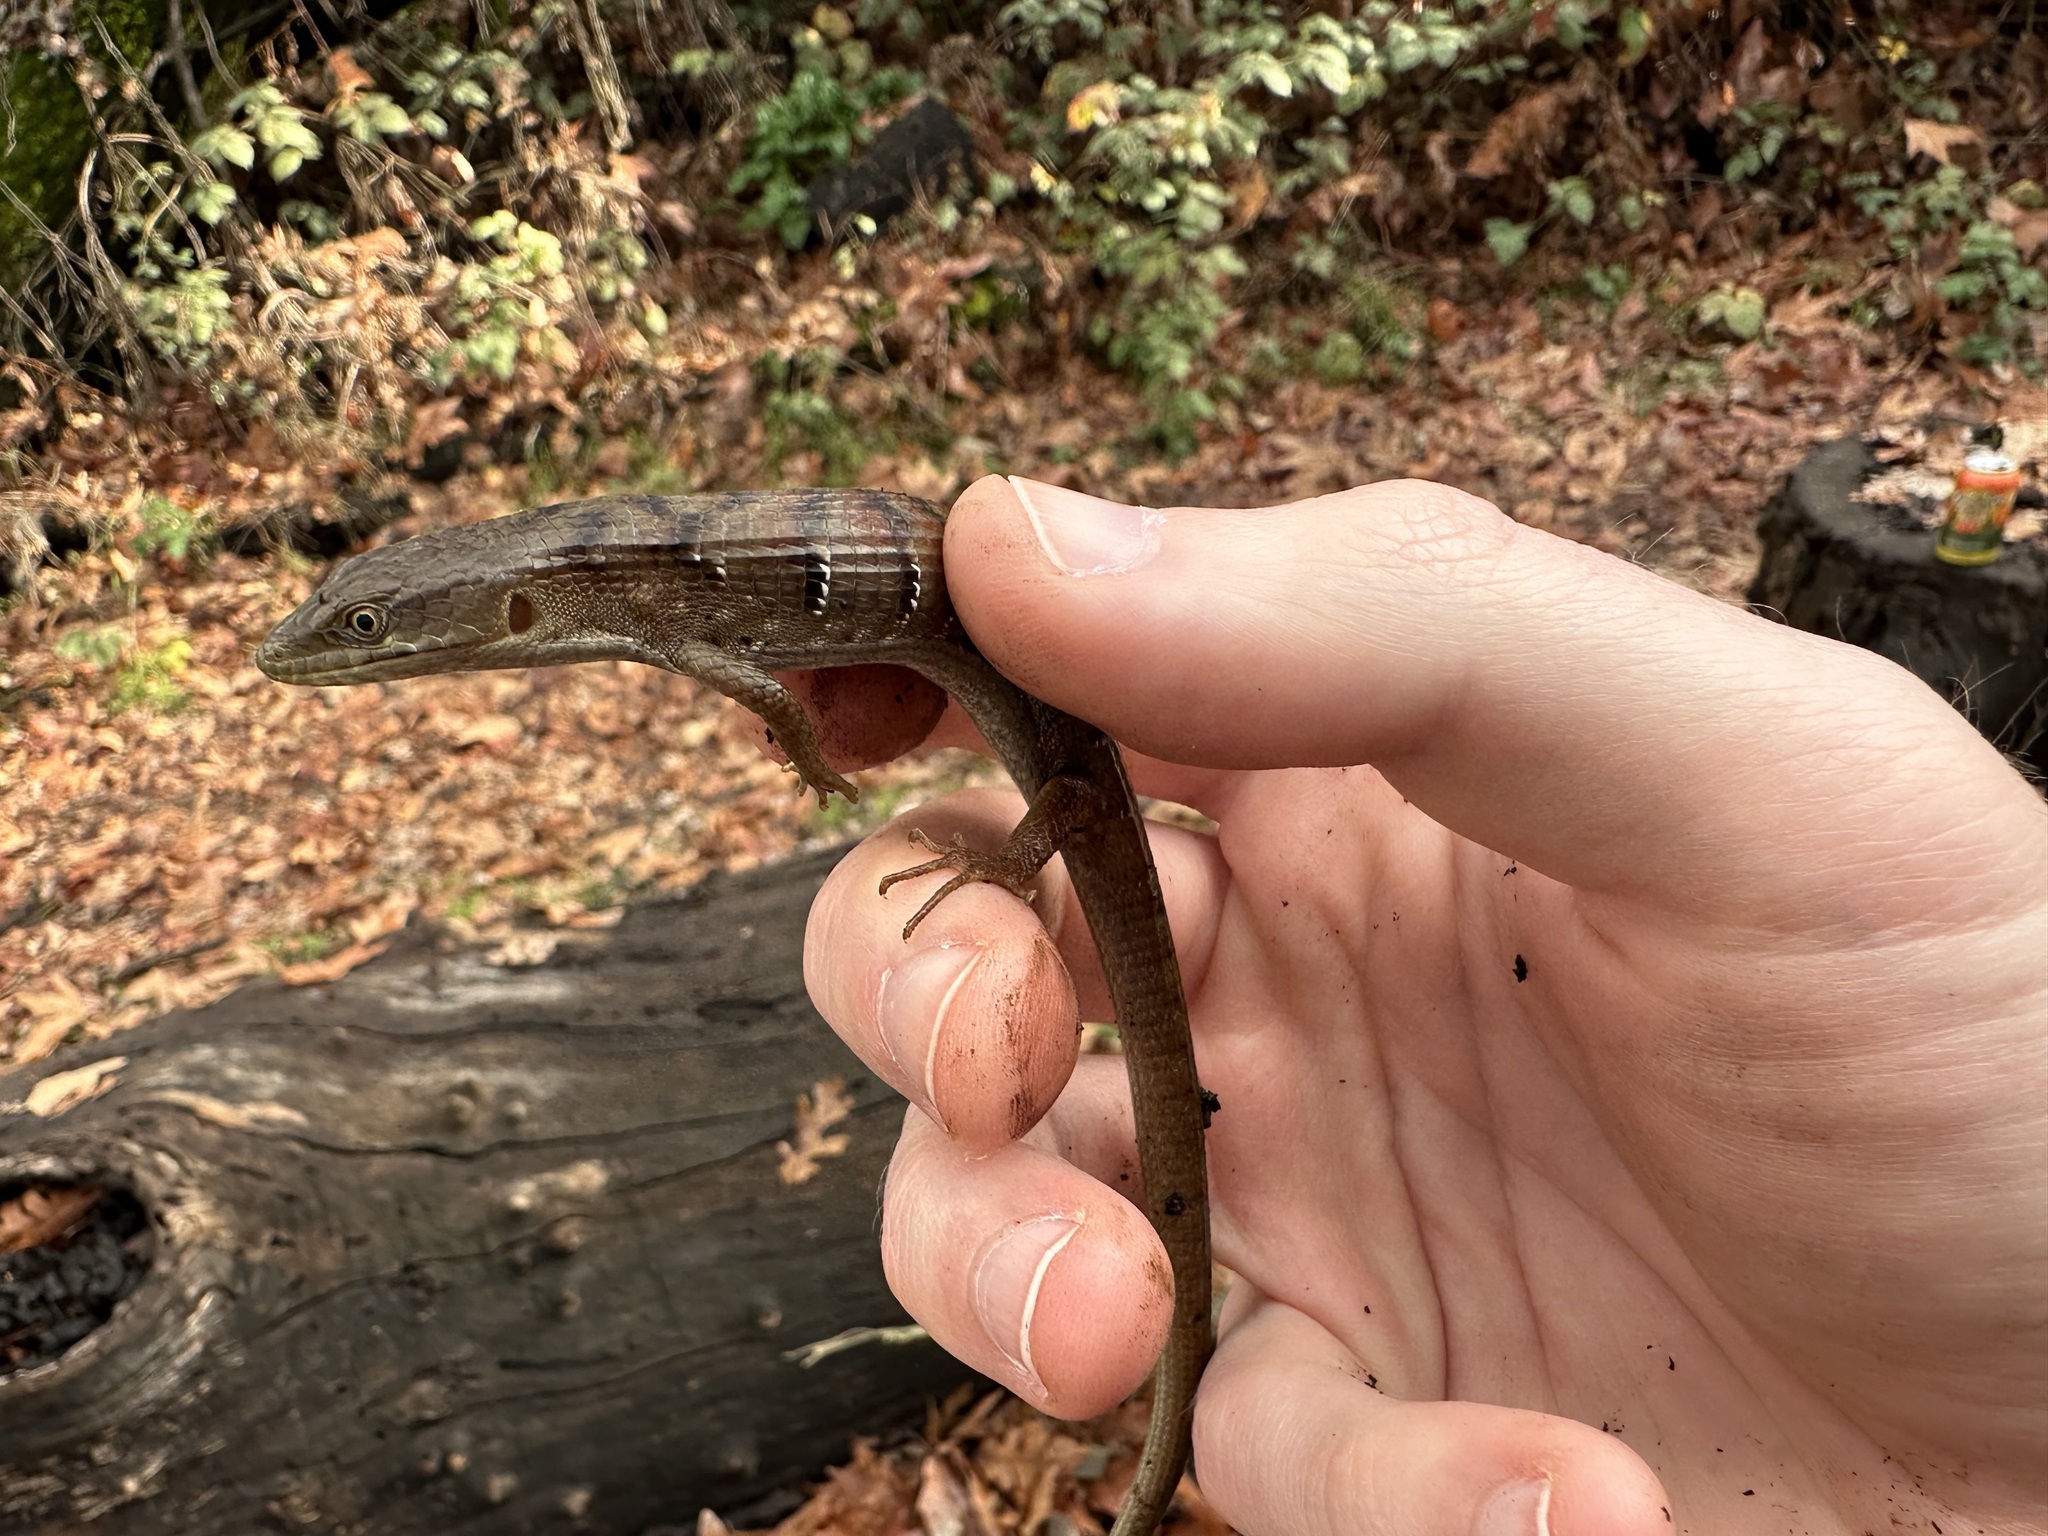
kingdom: Animalia
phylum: Chordata
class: Squamata
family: Anguidae
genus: Elgaria
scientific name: Elgaria multicarinata
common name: Southern alligator lizard
